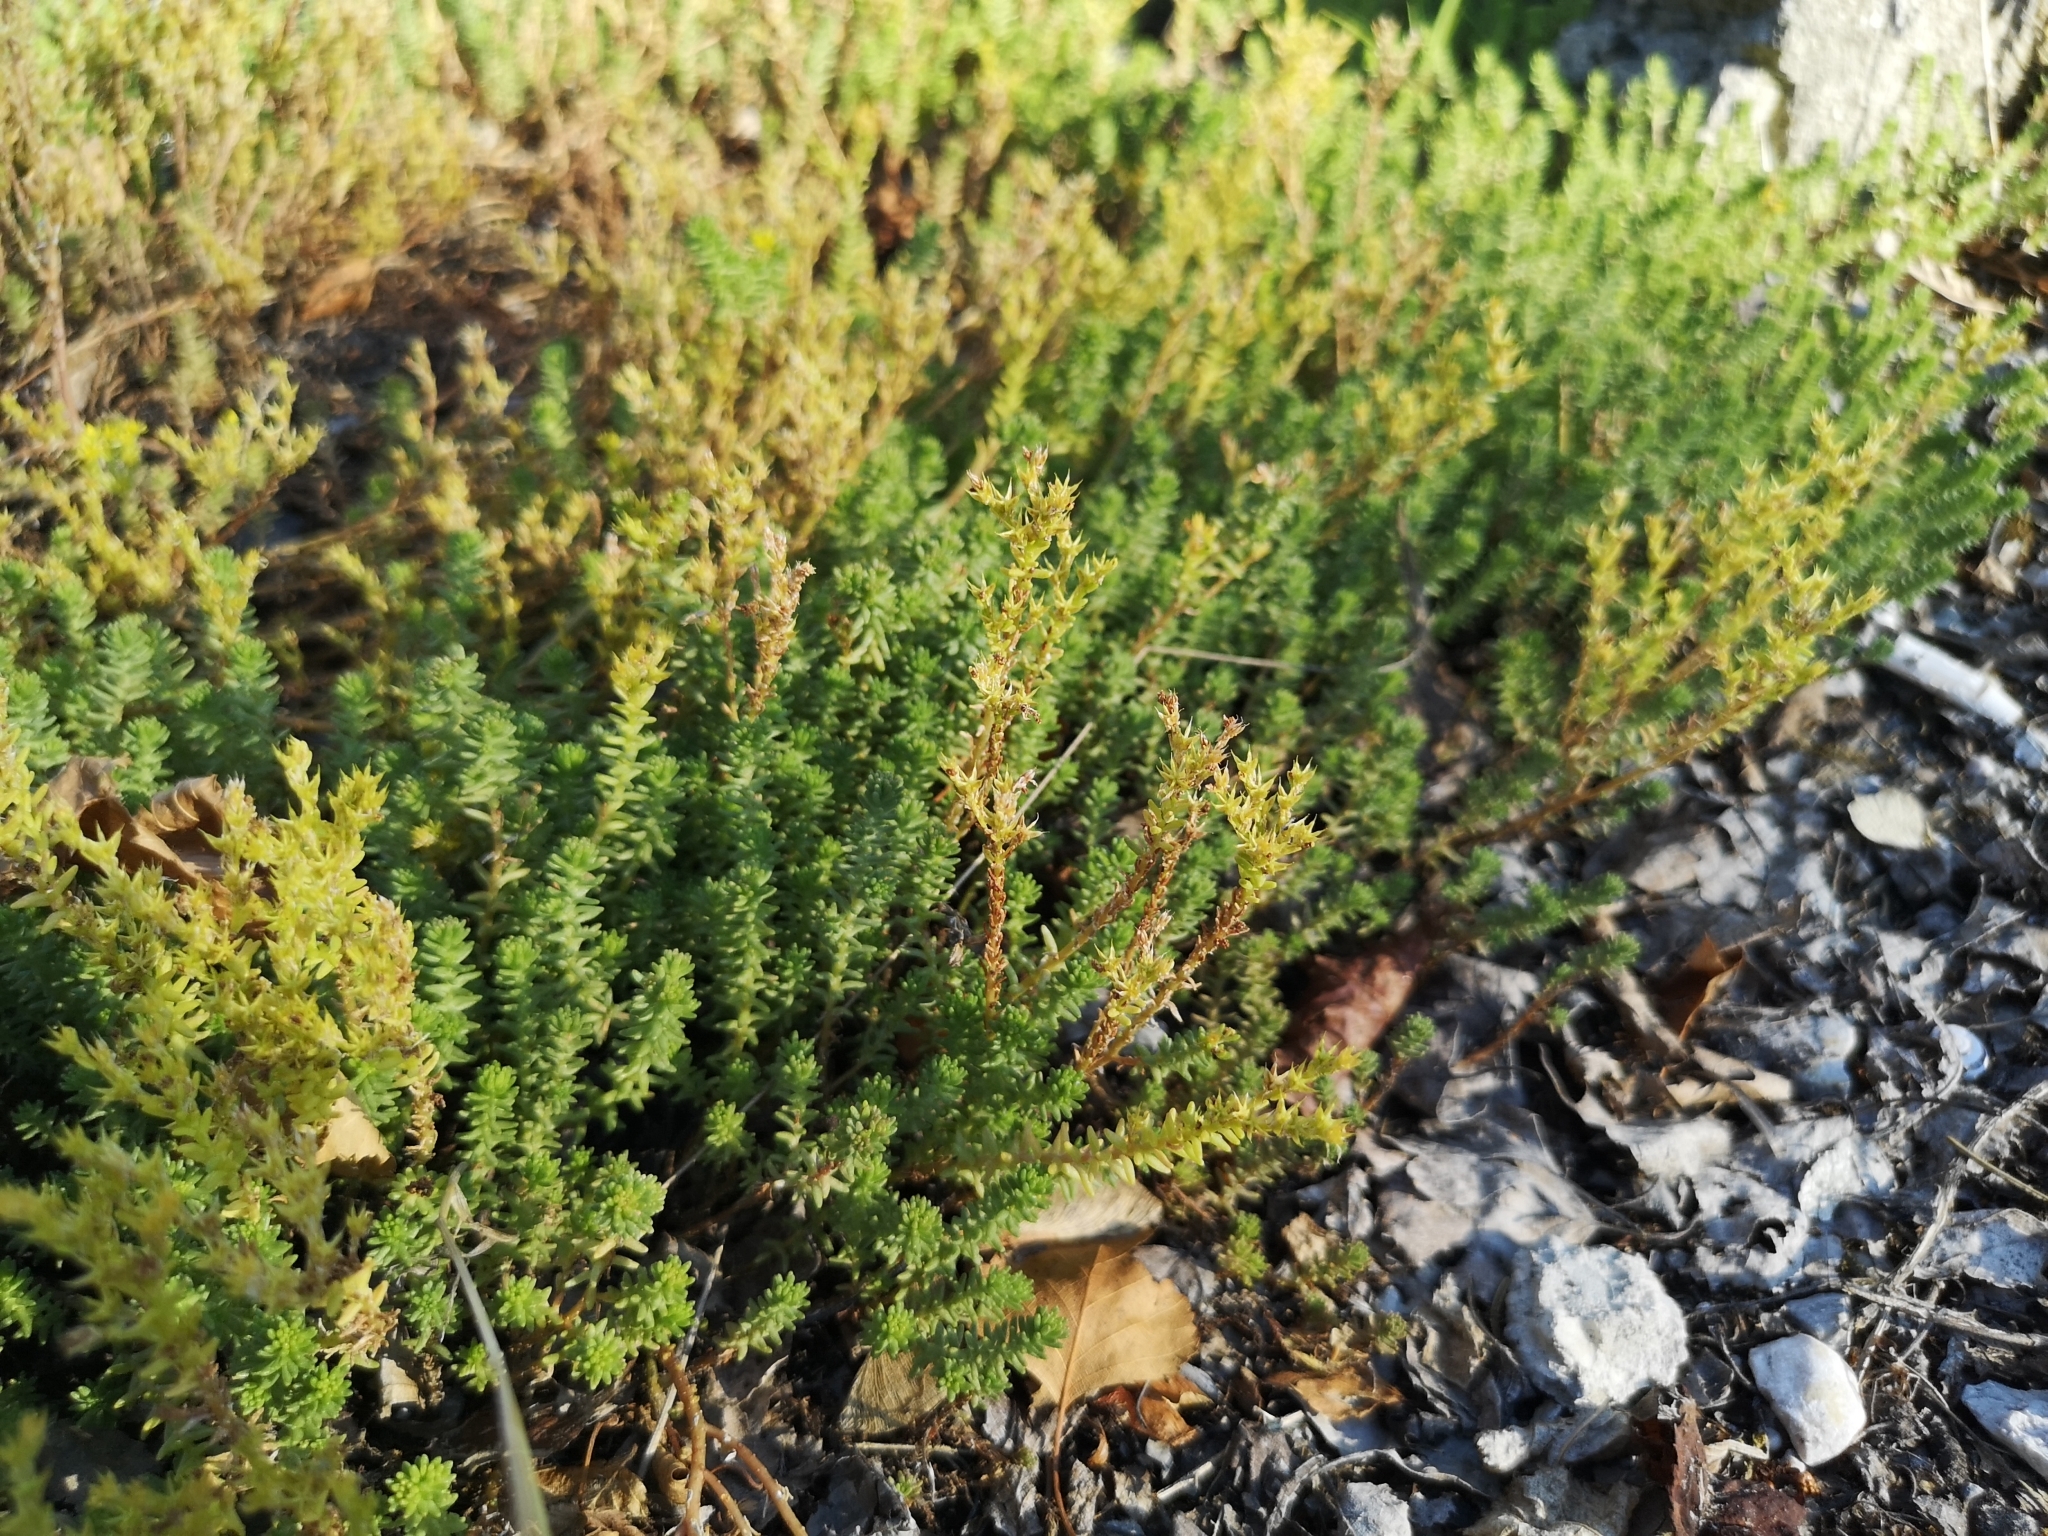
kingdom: Plantae
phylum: Tracheophyta
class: Magnoliopsida
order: Saxifragales
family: Crassulaceae
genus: Sedum
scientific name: Sedum sexangulare
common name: Tasteless stonecrop
